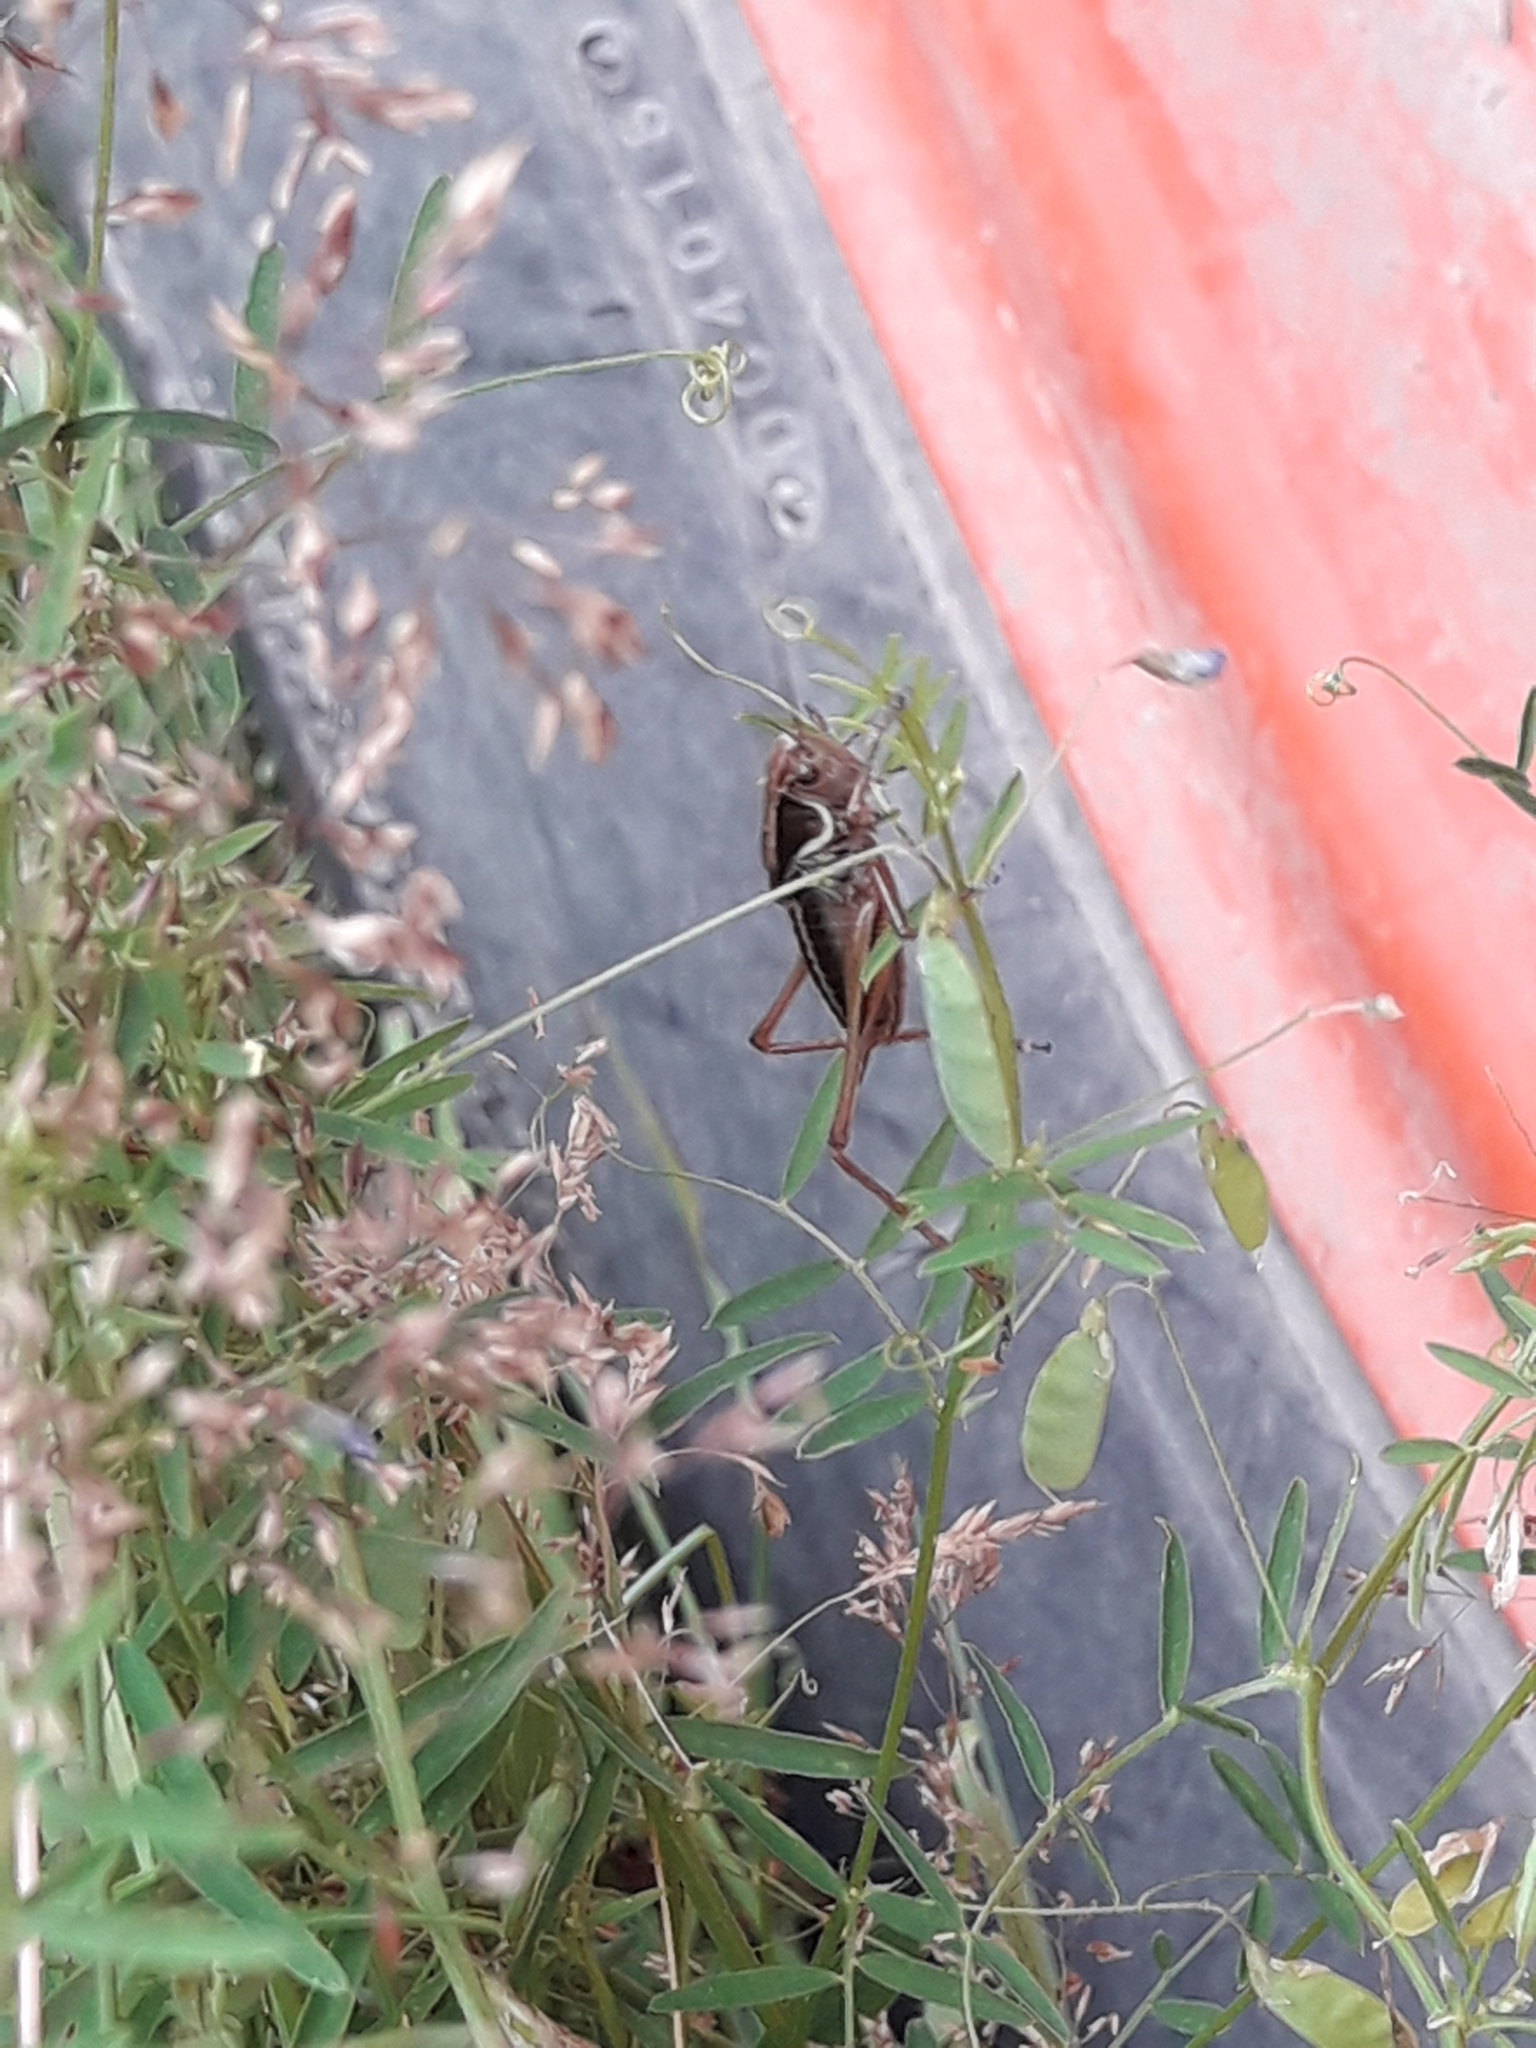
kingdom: Animalia
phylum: Arthropoda
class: Insecta
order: Orthoptera
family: Tettigoniidae
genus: Roeseliana
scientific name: Roeseliana roeselii
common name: Roesel's bush cricket
